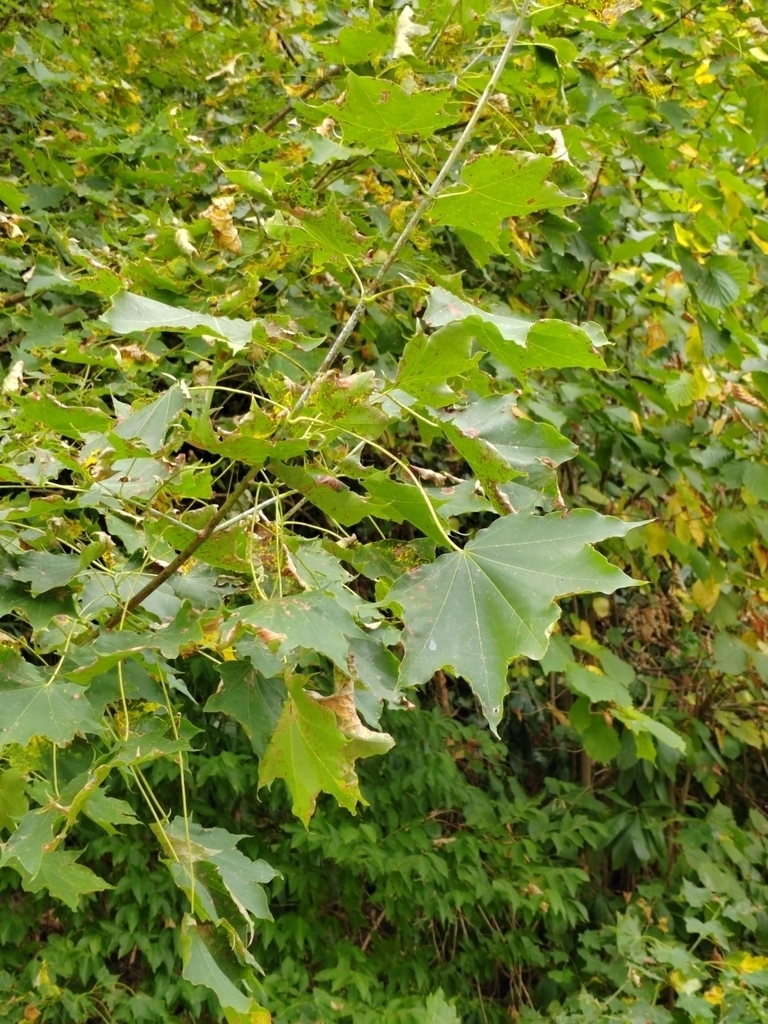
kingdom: Plantae
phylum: Tracheophyta
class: Magnoliopsida
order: Sapindales
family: Sapindaceae
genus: Acer
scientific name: Acer cappadocicum
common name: Cappadocian maple
